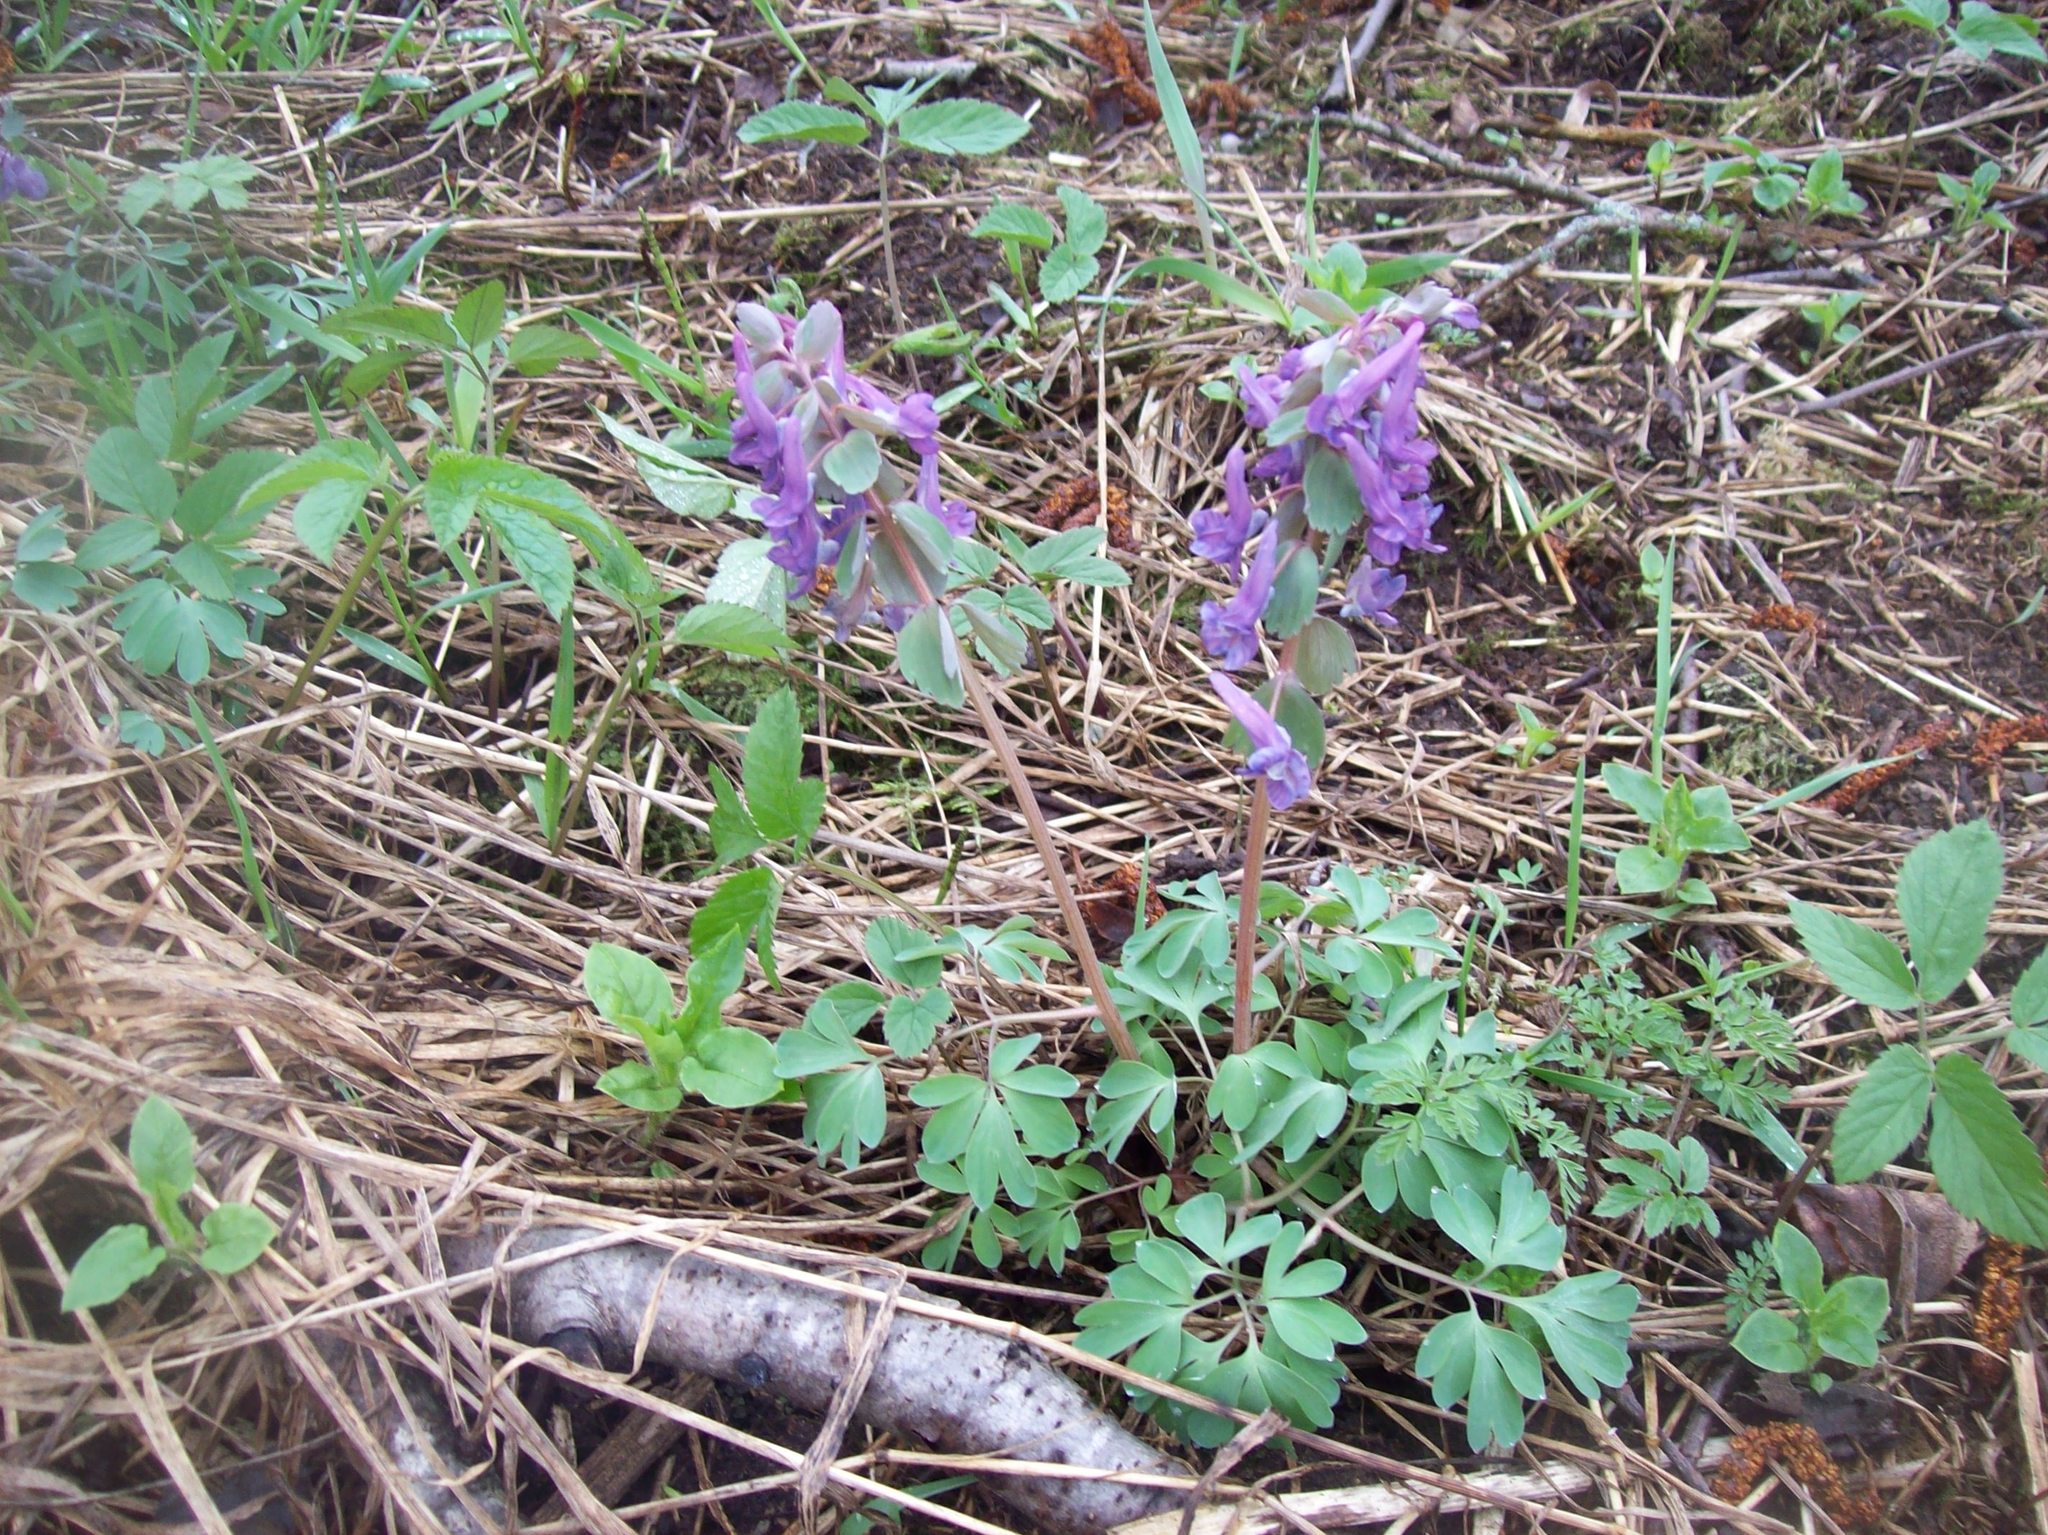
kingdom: Plantae
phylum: Tracheophyta
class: Magnoliopsida
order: Ranunculales
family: Papaveraceae
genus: Corydalis
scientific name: Corydalis solida
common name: Bird-in-a-bush
